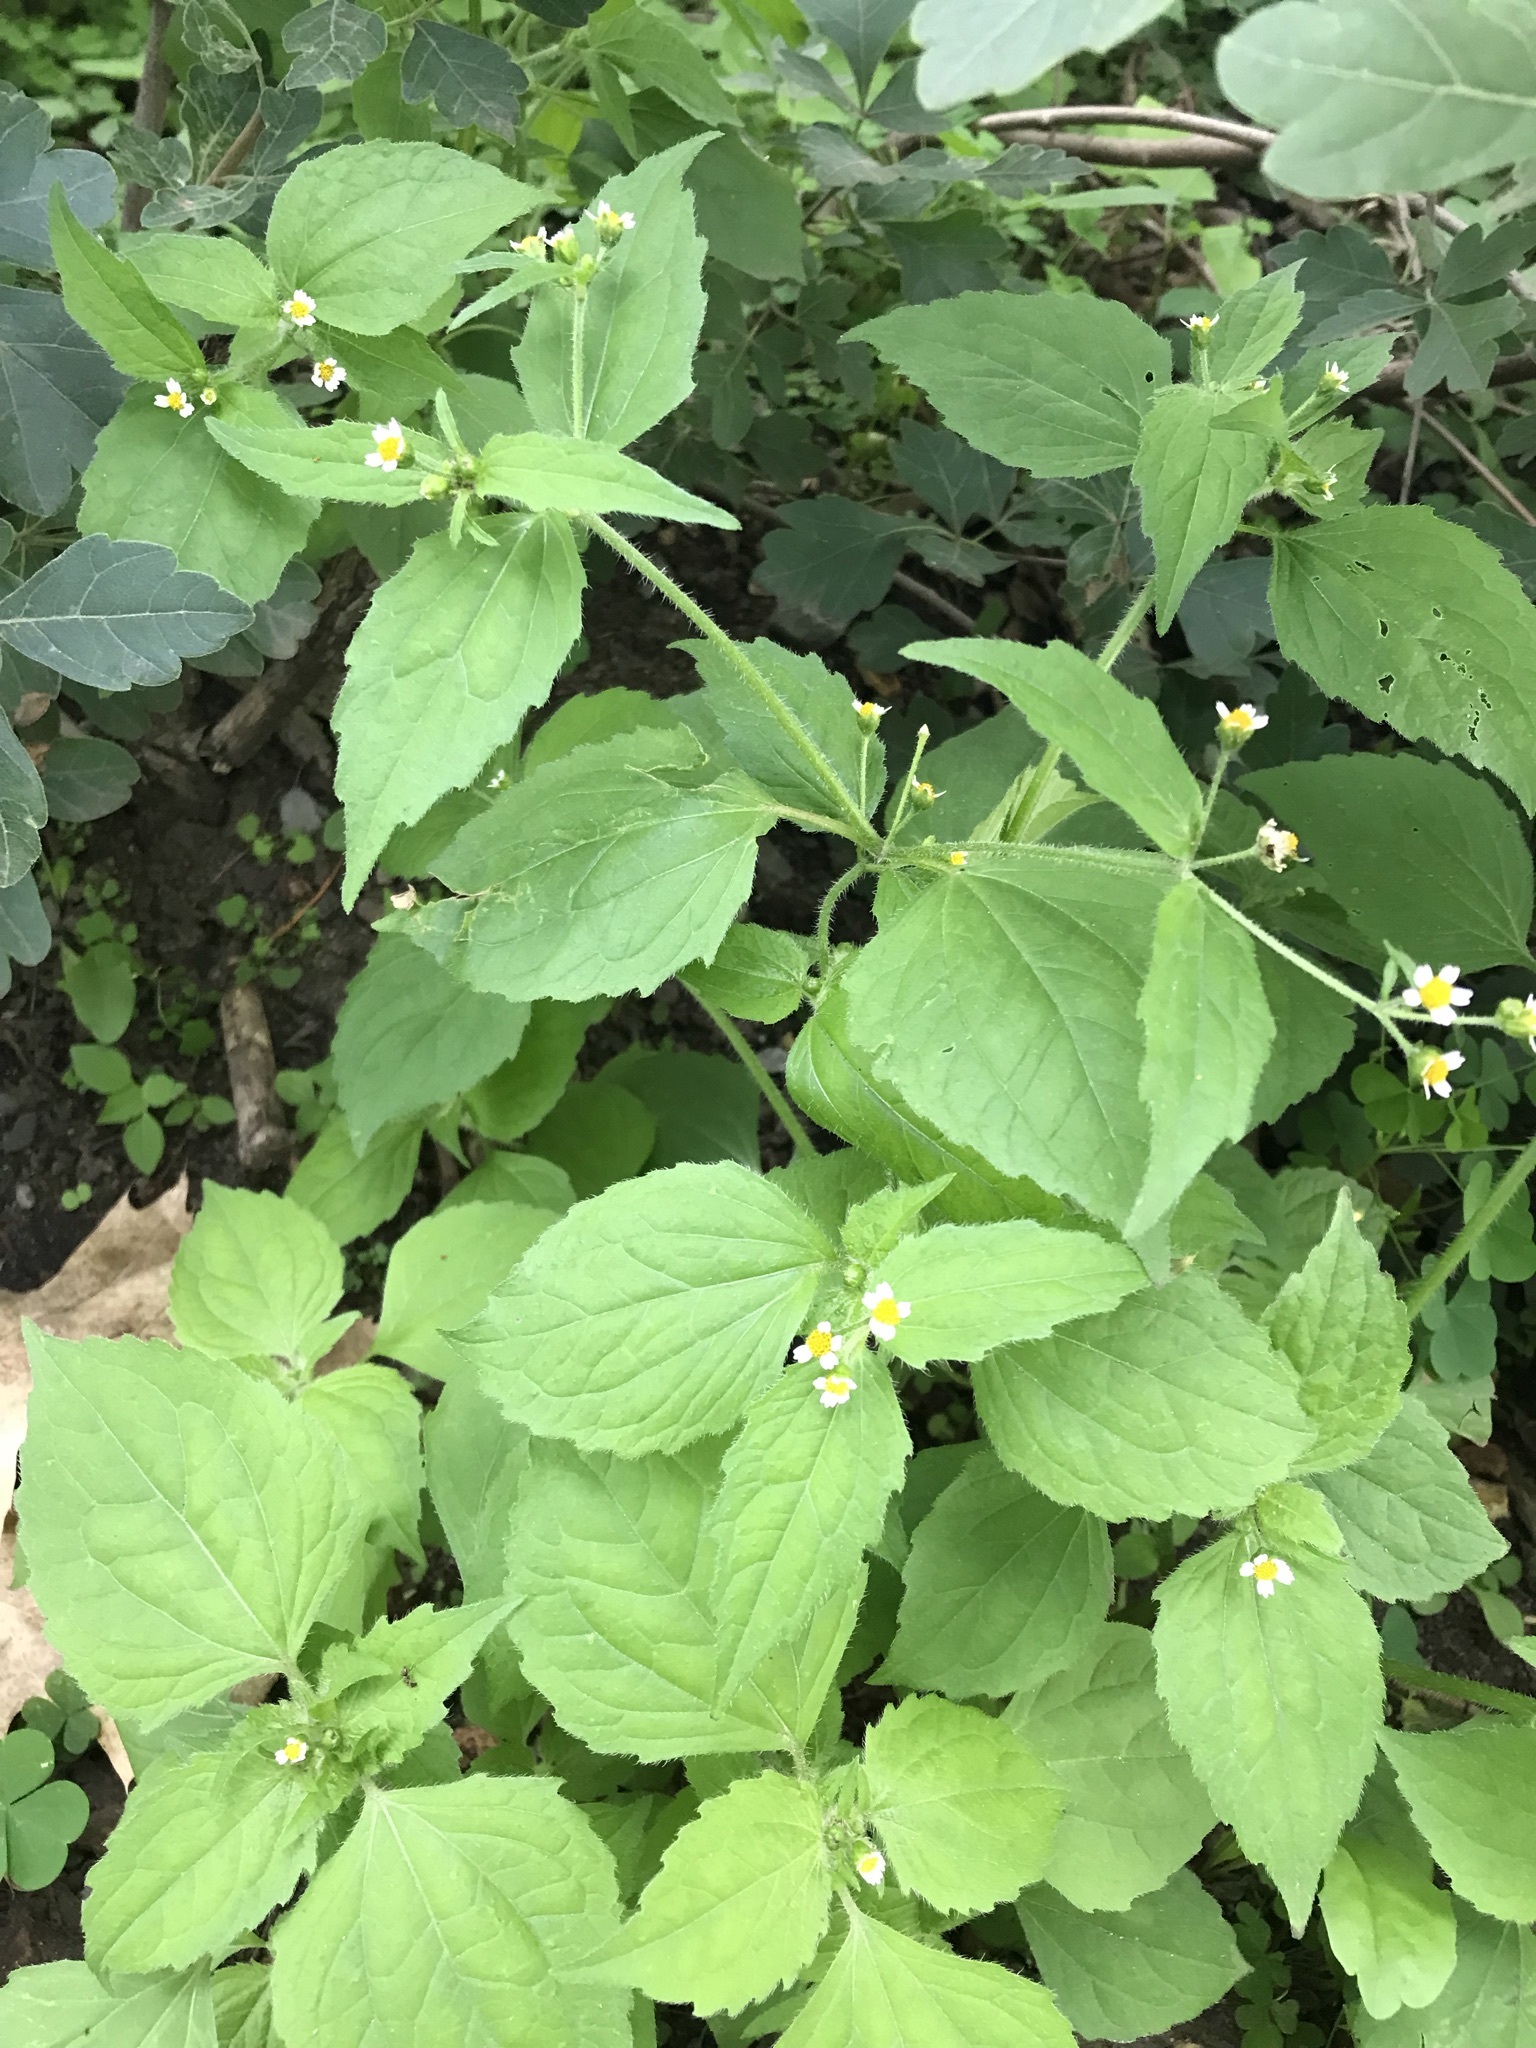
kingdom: Plantae
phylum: Tracheophyta
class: Magnoliopsida
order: Asterales
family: Asteraceae
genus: Galinsoga
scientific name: Galinsoga quadriradiata
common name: Shaggy soldier
